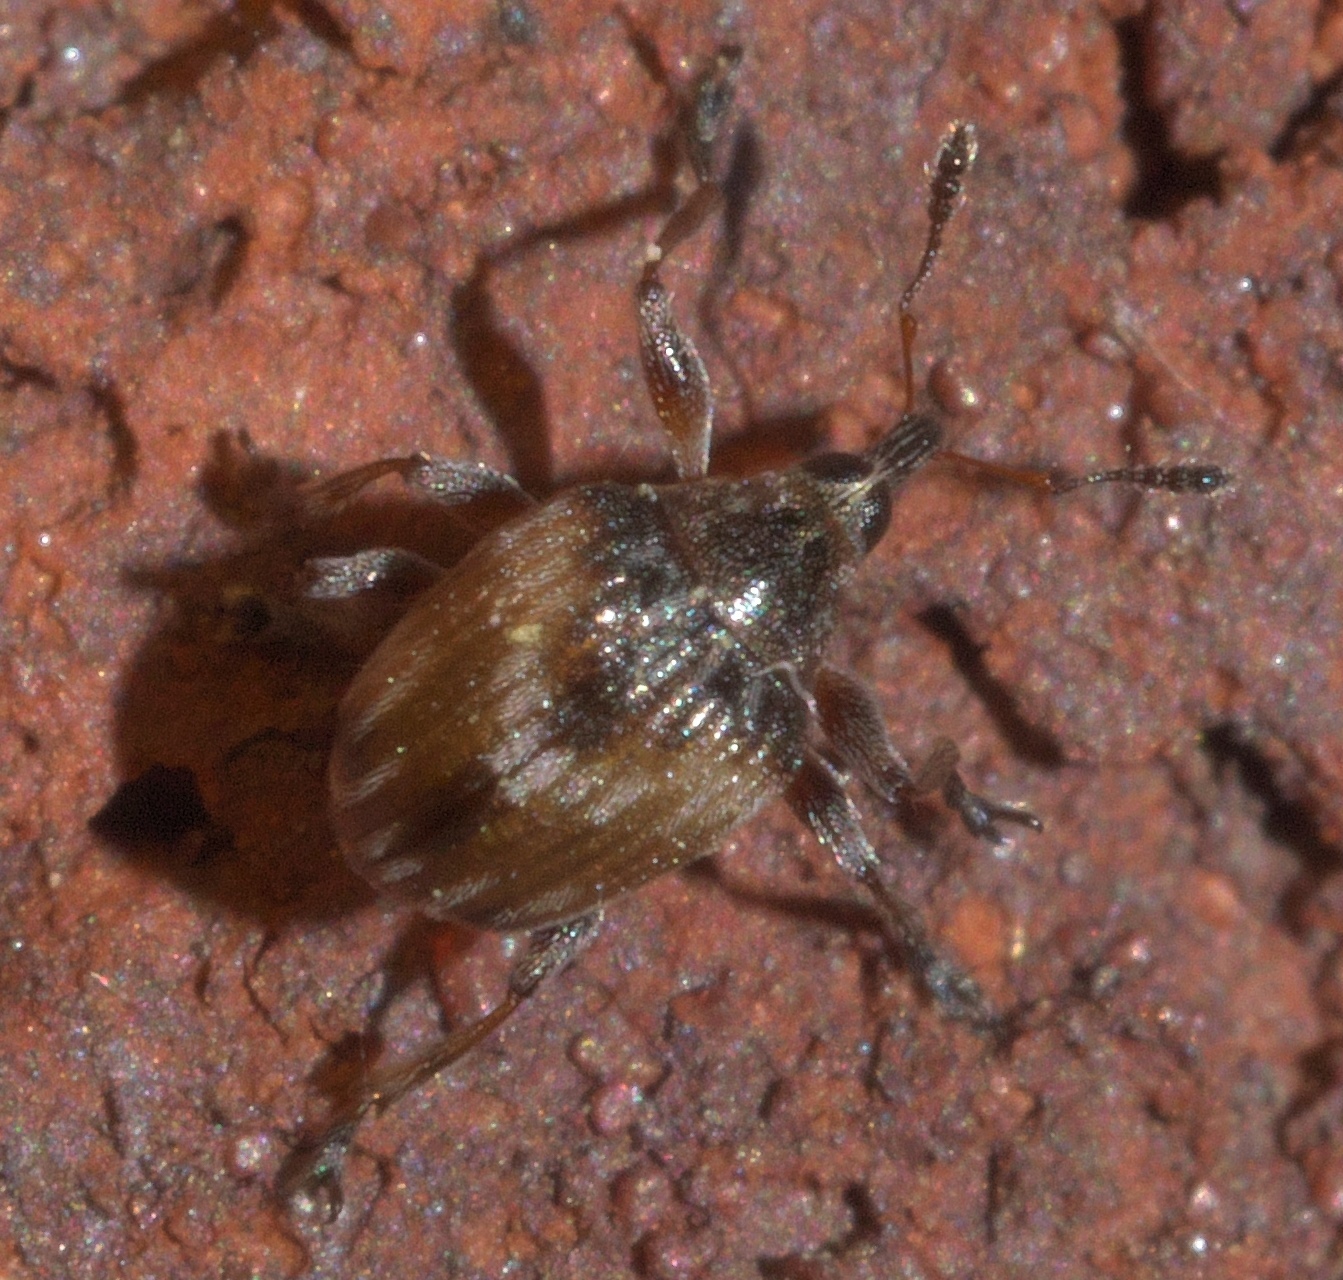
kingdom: Animalia
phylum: Arthropoda
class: Insecta
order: Coleoptera
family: Brentidae
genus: Nanodactylus
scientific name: Nanodactylus
